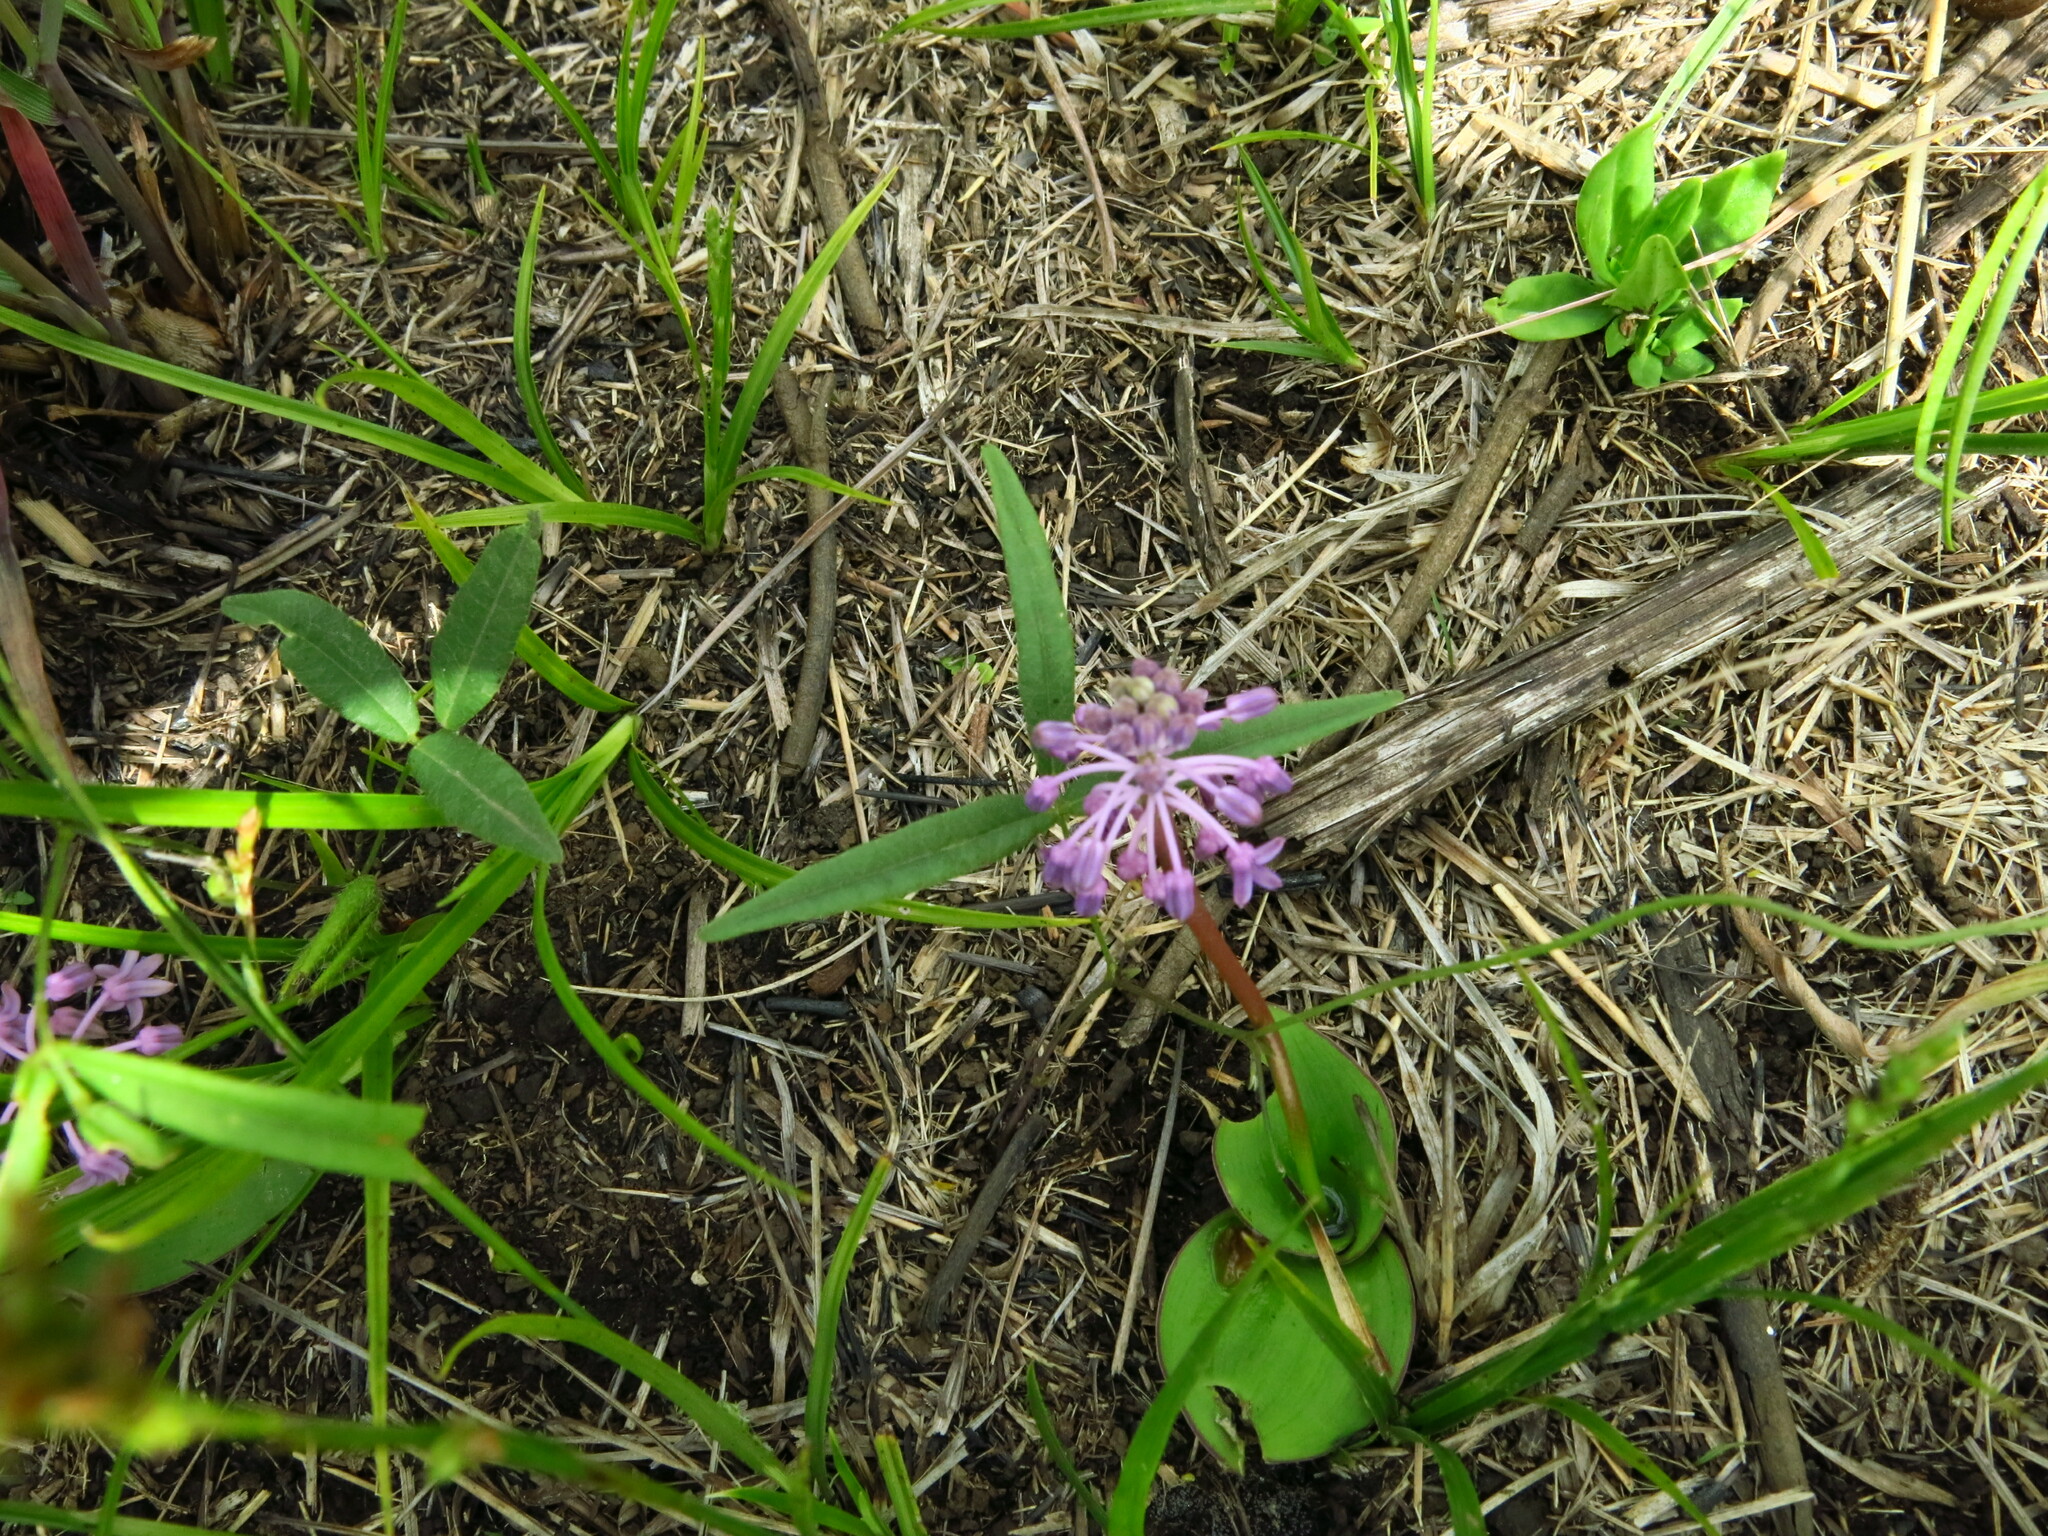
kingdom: Plantae
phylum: Tracheophyta
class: Liliopsida
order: Asparagales
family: Asparagaceae
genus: Ledebouria
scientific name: Ledebouria sandersonii
